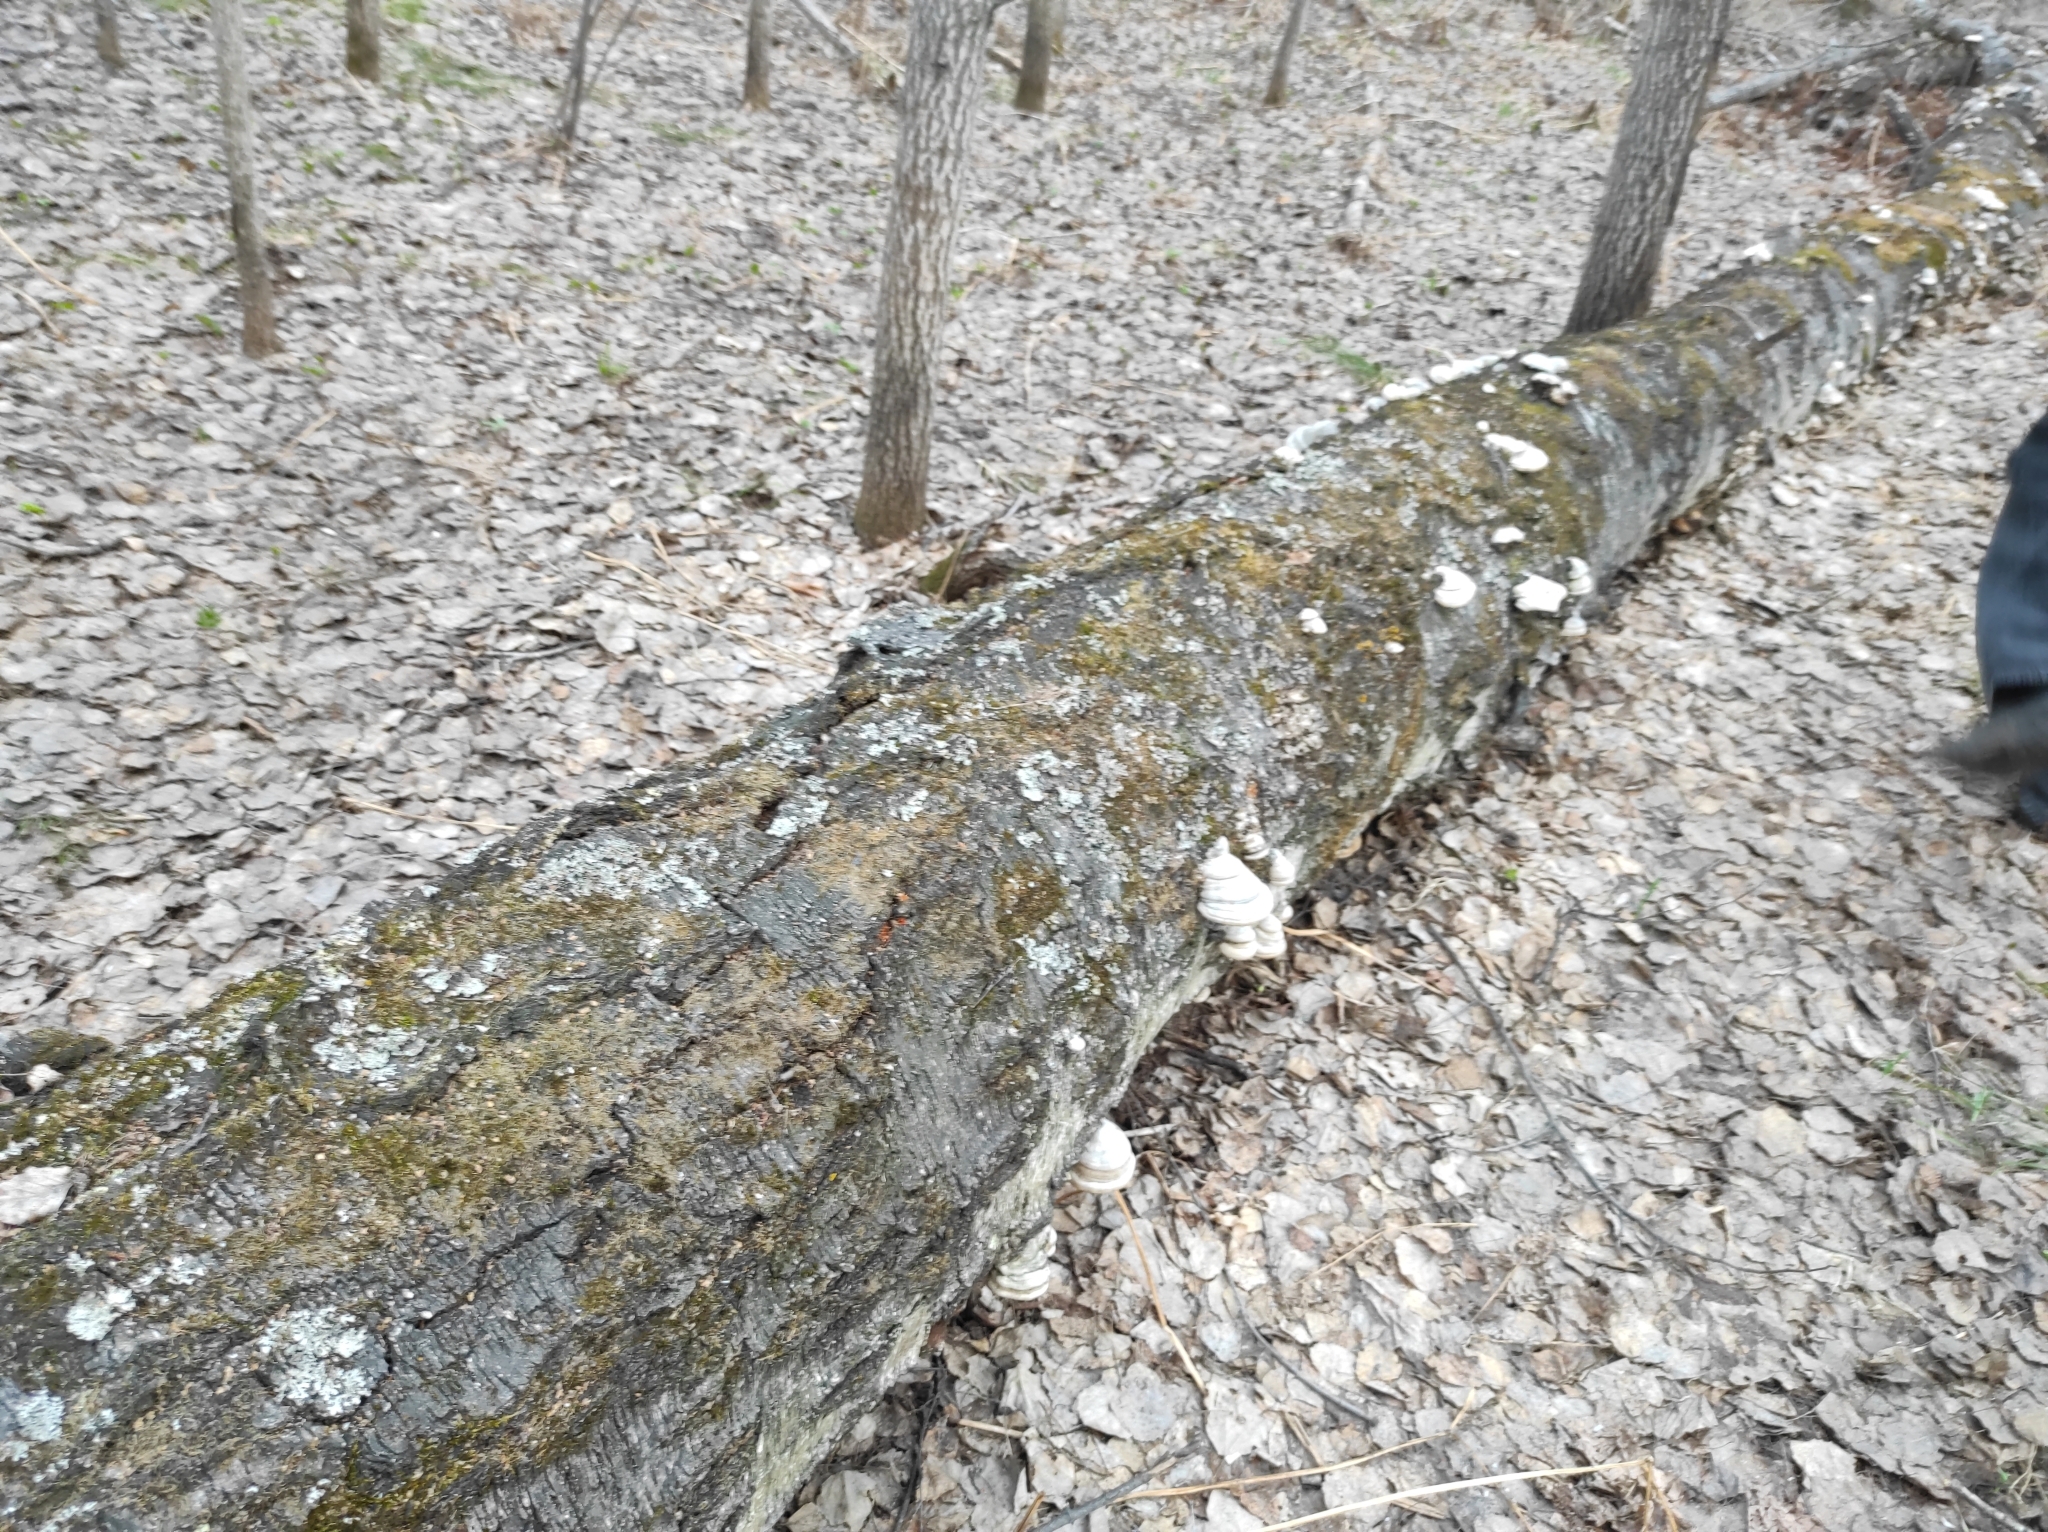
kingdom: Fungi
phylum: Basidiomycota
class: Agaricomycetes
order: Polyporales
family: Polyporaceae
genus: Fomes
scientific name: Fomes fomentarius
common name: Hoof fungus
